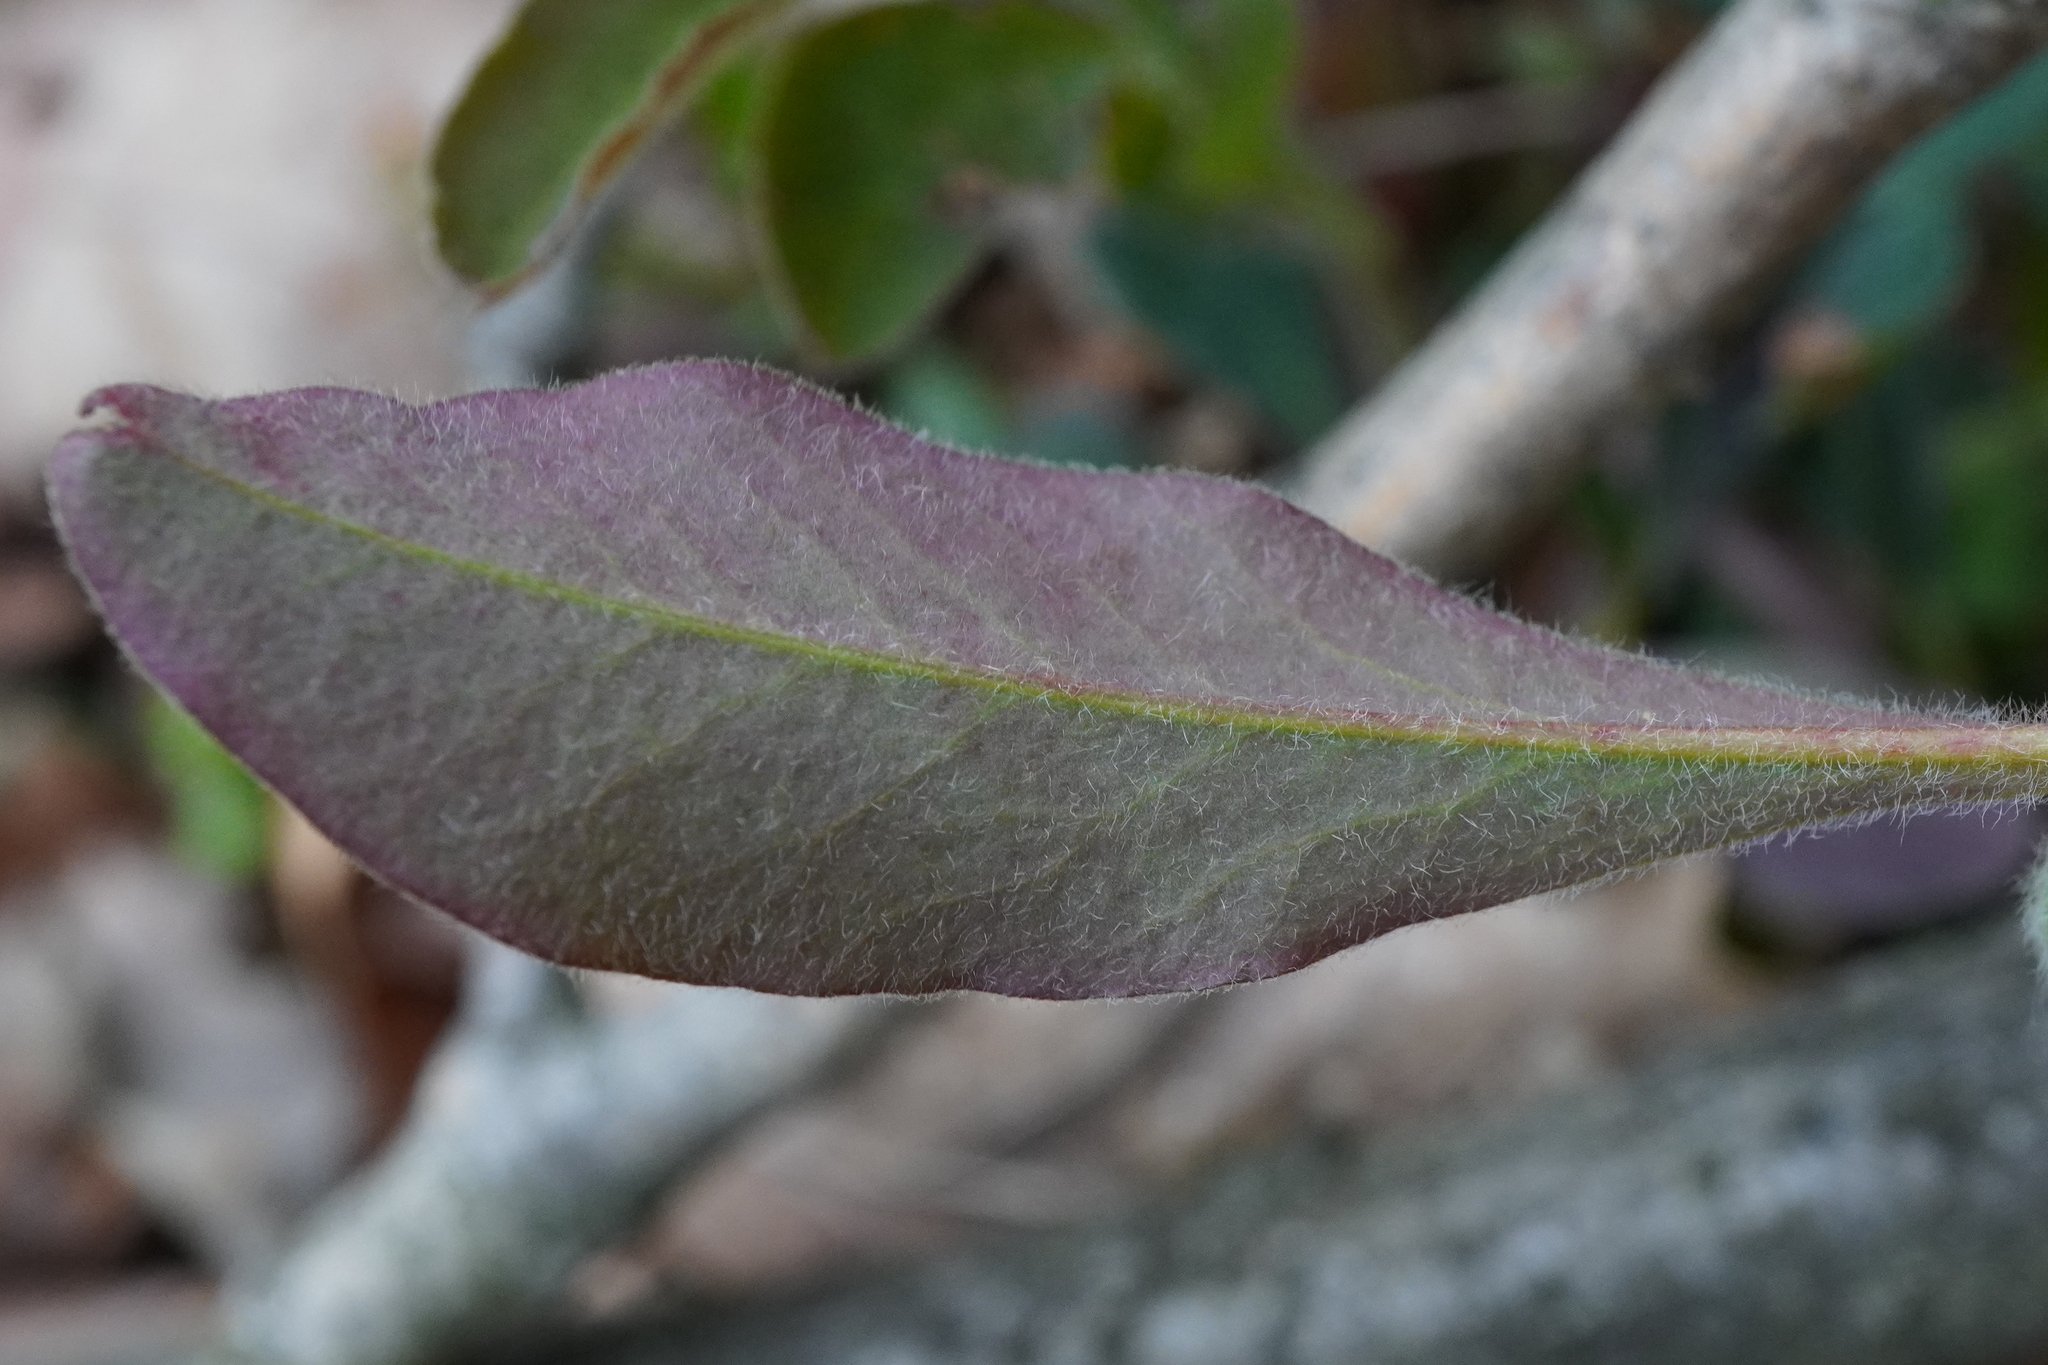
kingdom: Plantae
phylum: Tracheophyta
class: Magnoliopsida
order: Malpighiales
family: Euphorbiaceae
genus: Euphorbia
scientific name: Euphorbia amygdaloides
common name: Wood spurge
